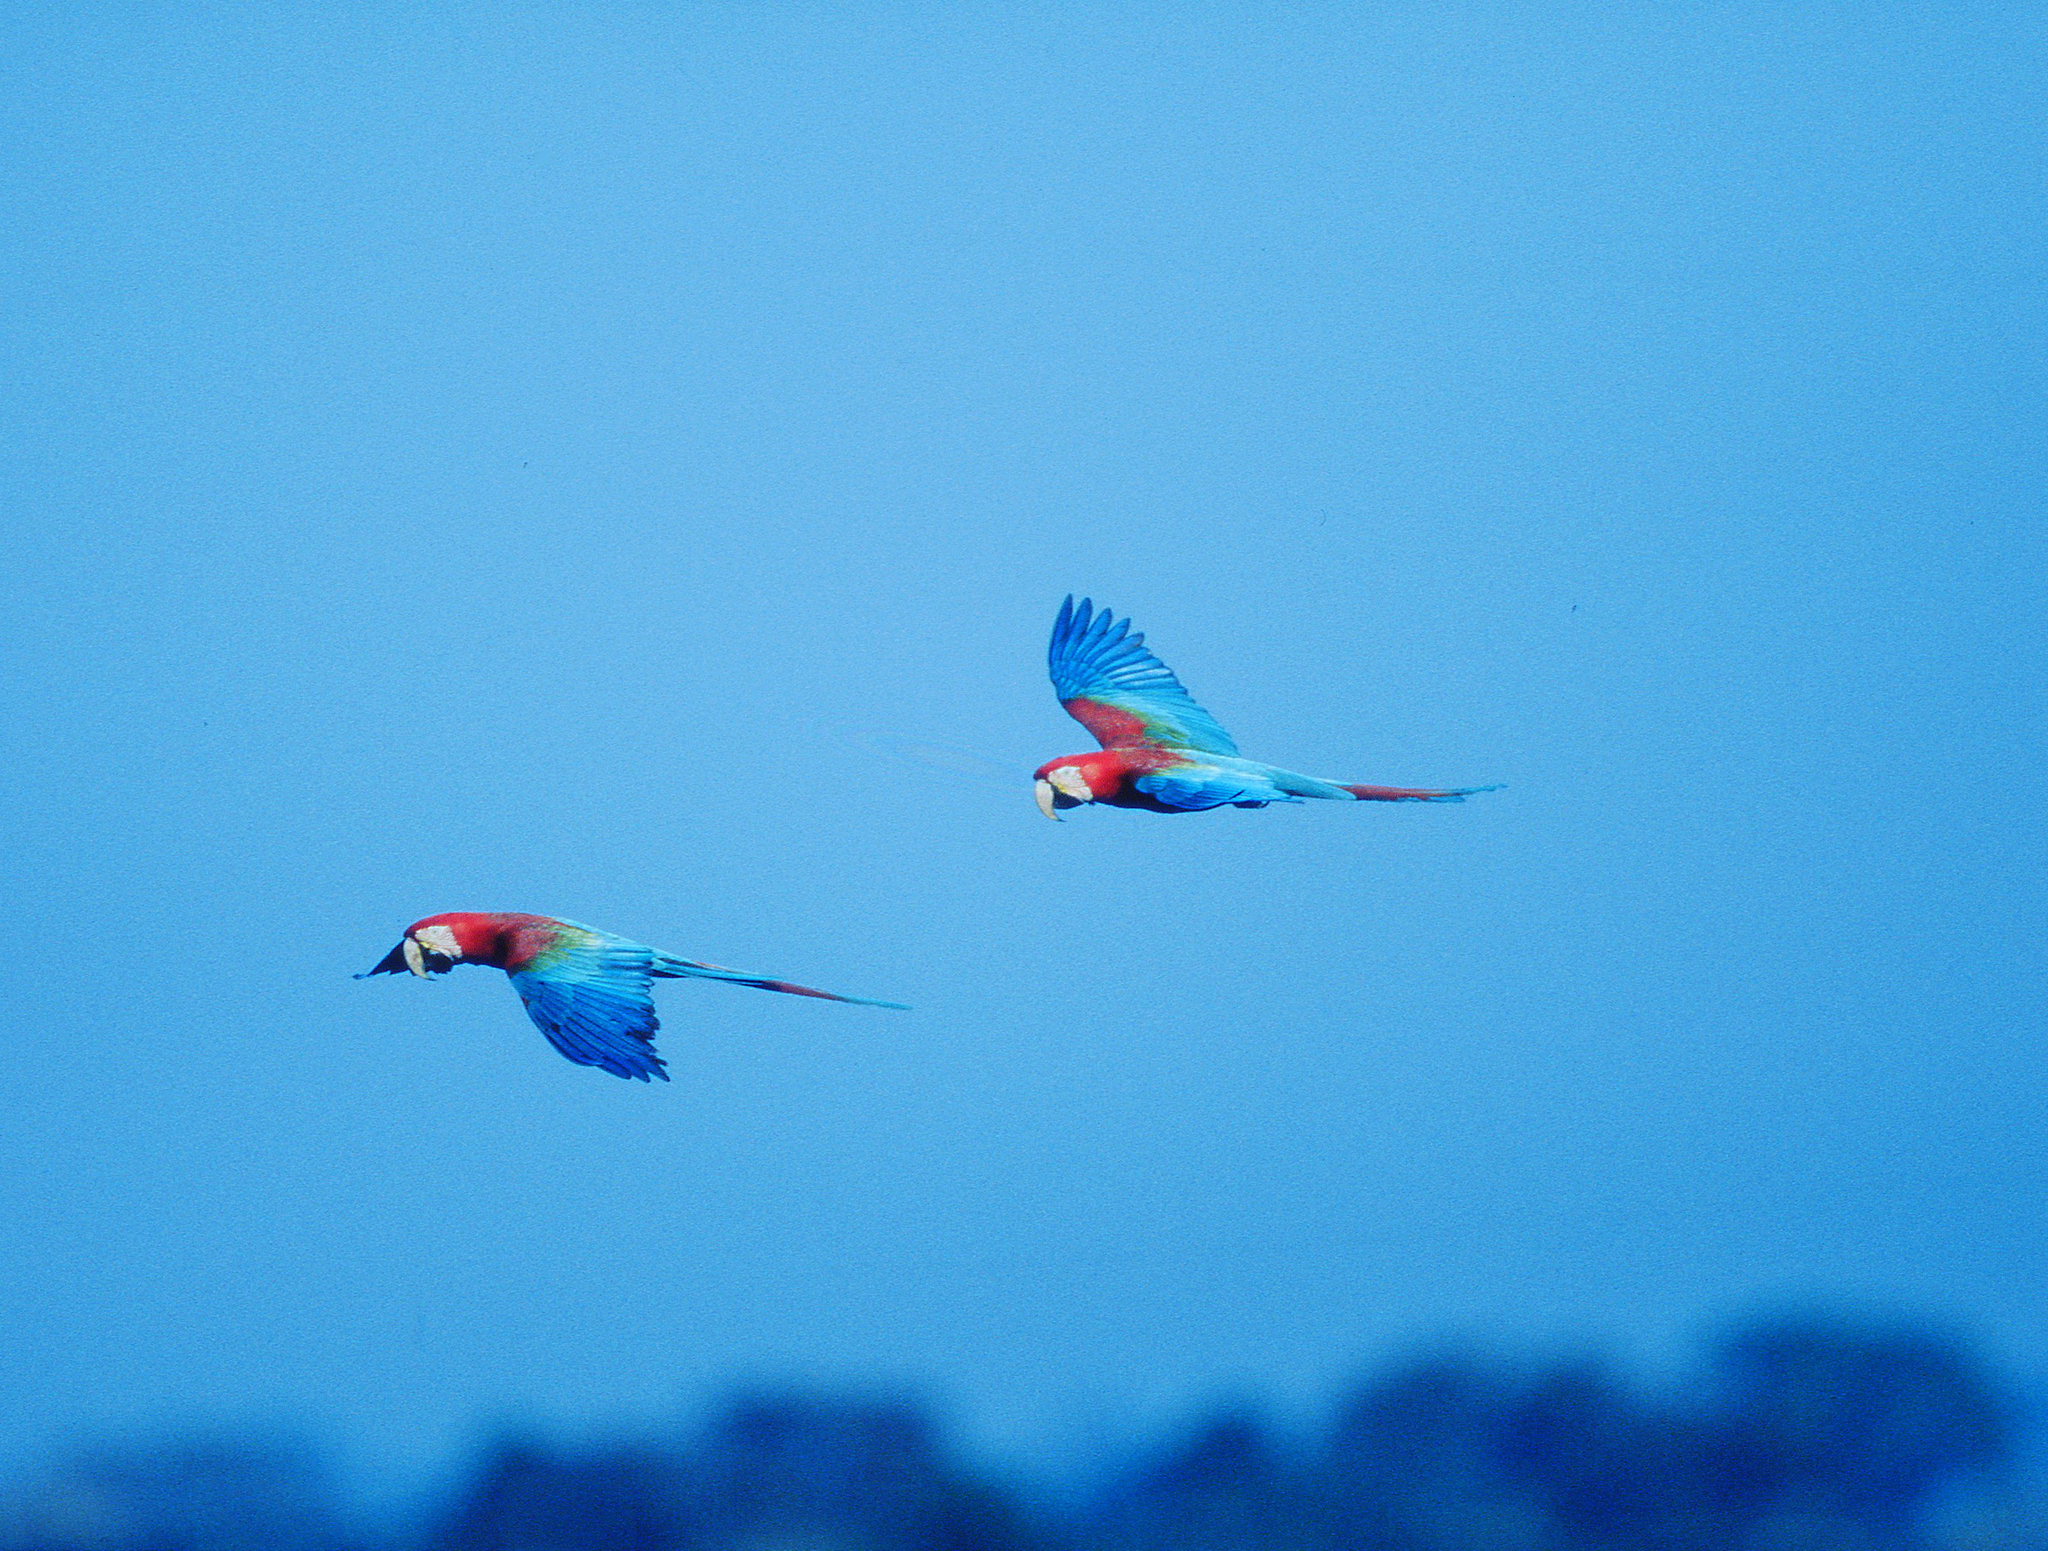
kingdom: Animalia
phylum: Chordata
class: Aves
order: Psittaciformes
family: Psittacidae
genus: Ara
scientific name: Ara chloropterus
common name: Red-and-green macaw
